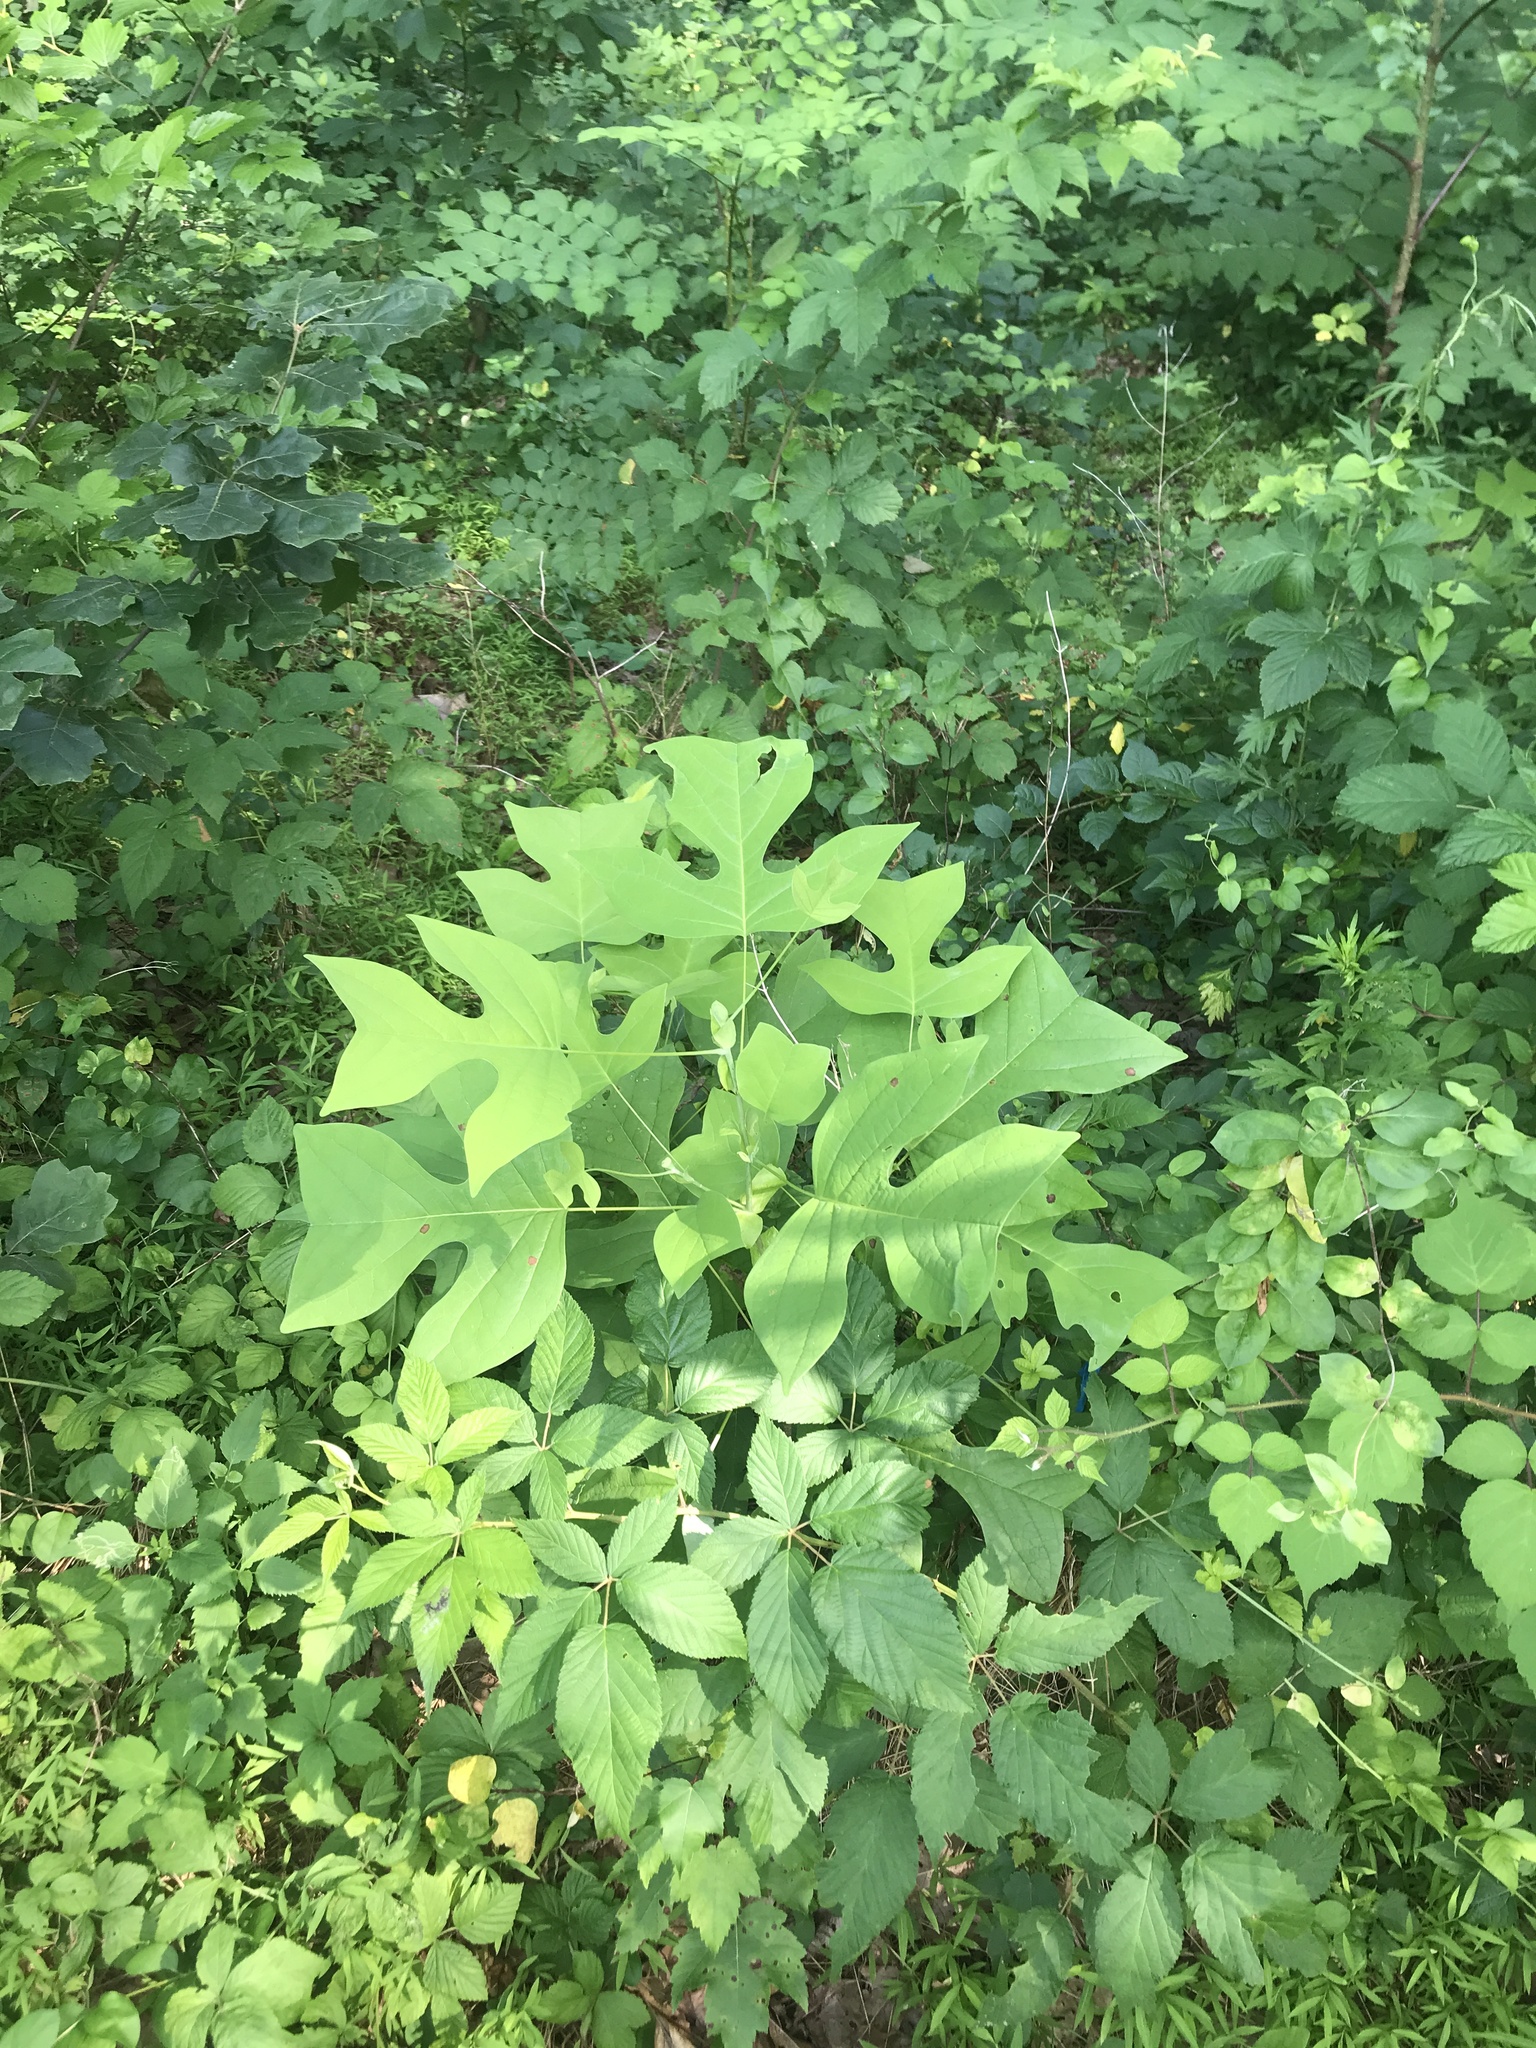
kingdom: Plantae
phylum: Tracheophyta
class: Magnoliopsida
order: Magnoliales
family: Magnoliaceae
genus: Liriodendron
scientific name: Liriodendron tulipifera
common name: Tulip tree
